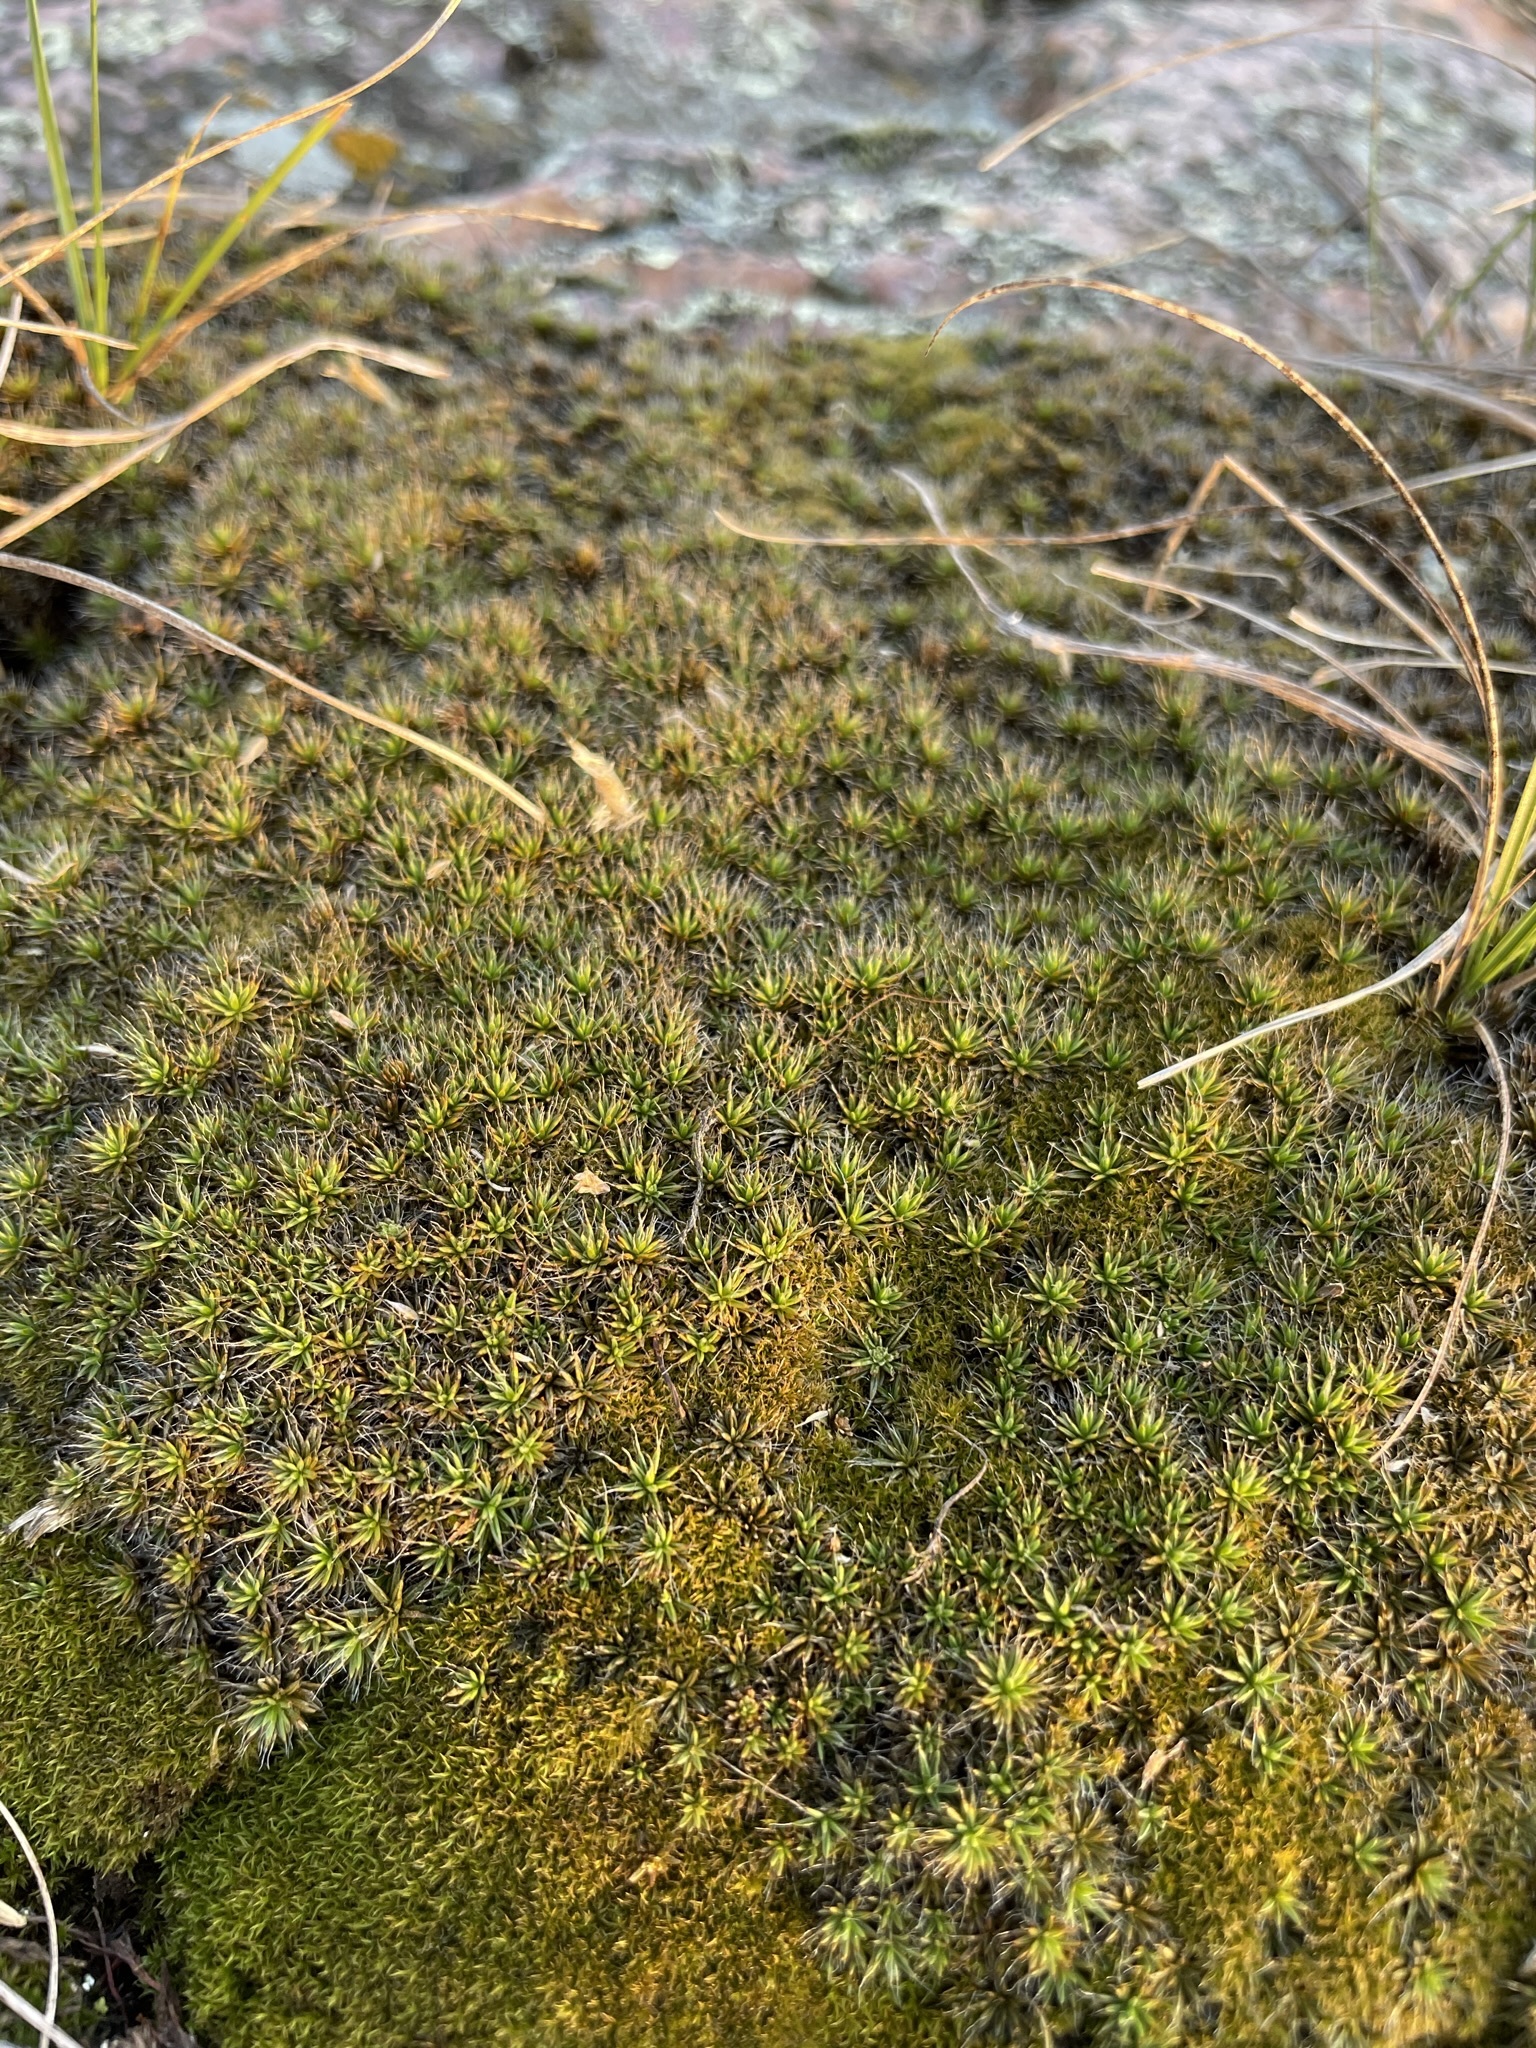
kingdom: Plantae
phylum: Bryophyta
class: Polytrichopsida
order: Polytrichales
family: Polytrichaceae
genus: Polytrichum
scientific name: Polytrichum piliferum
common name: Bristly haircap
